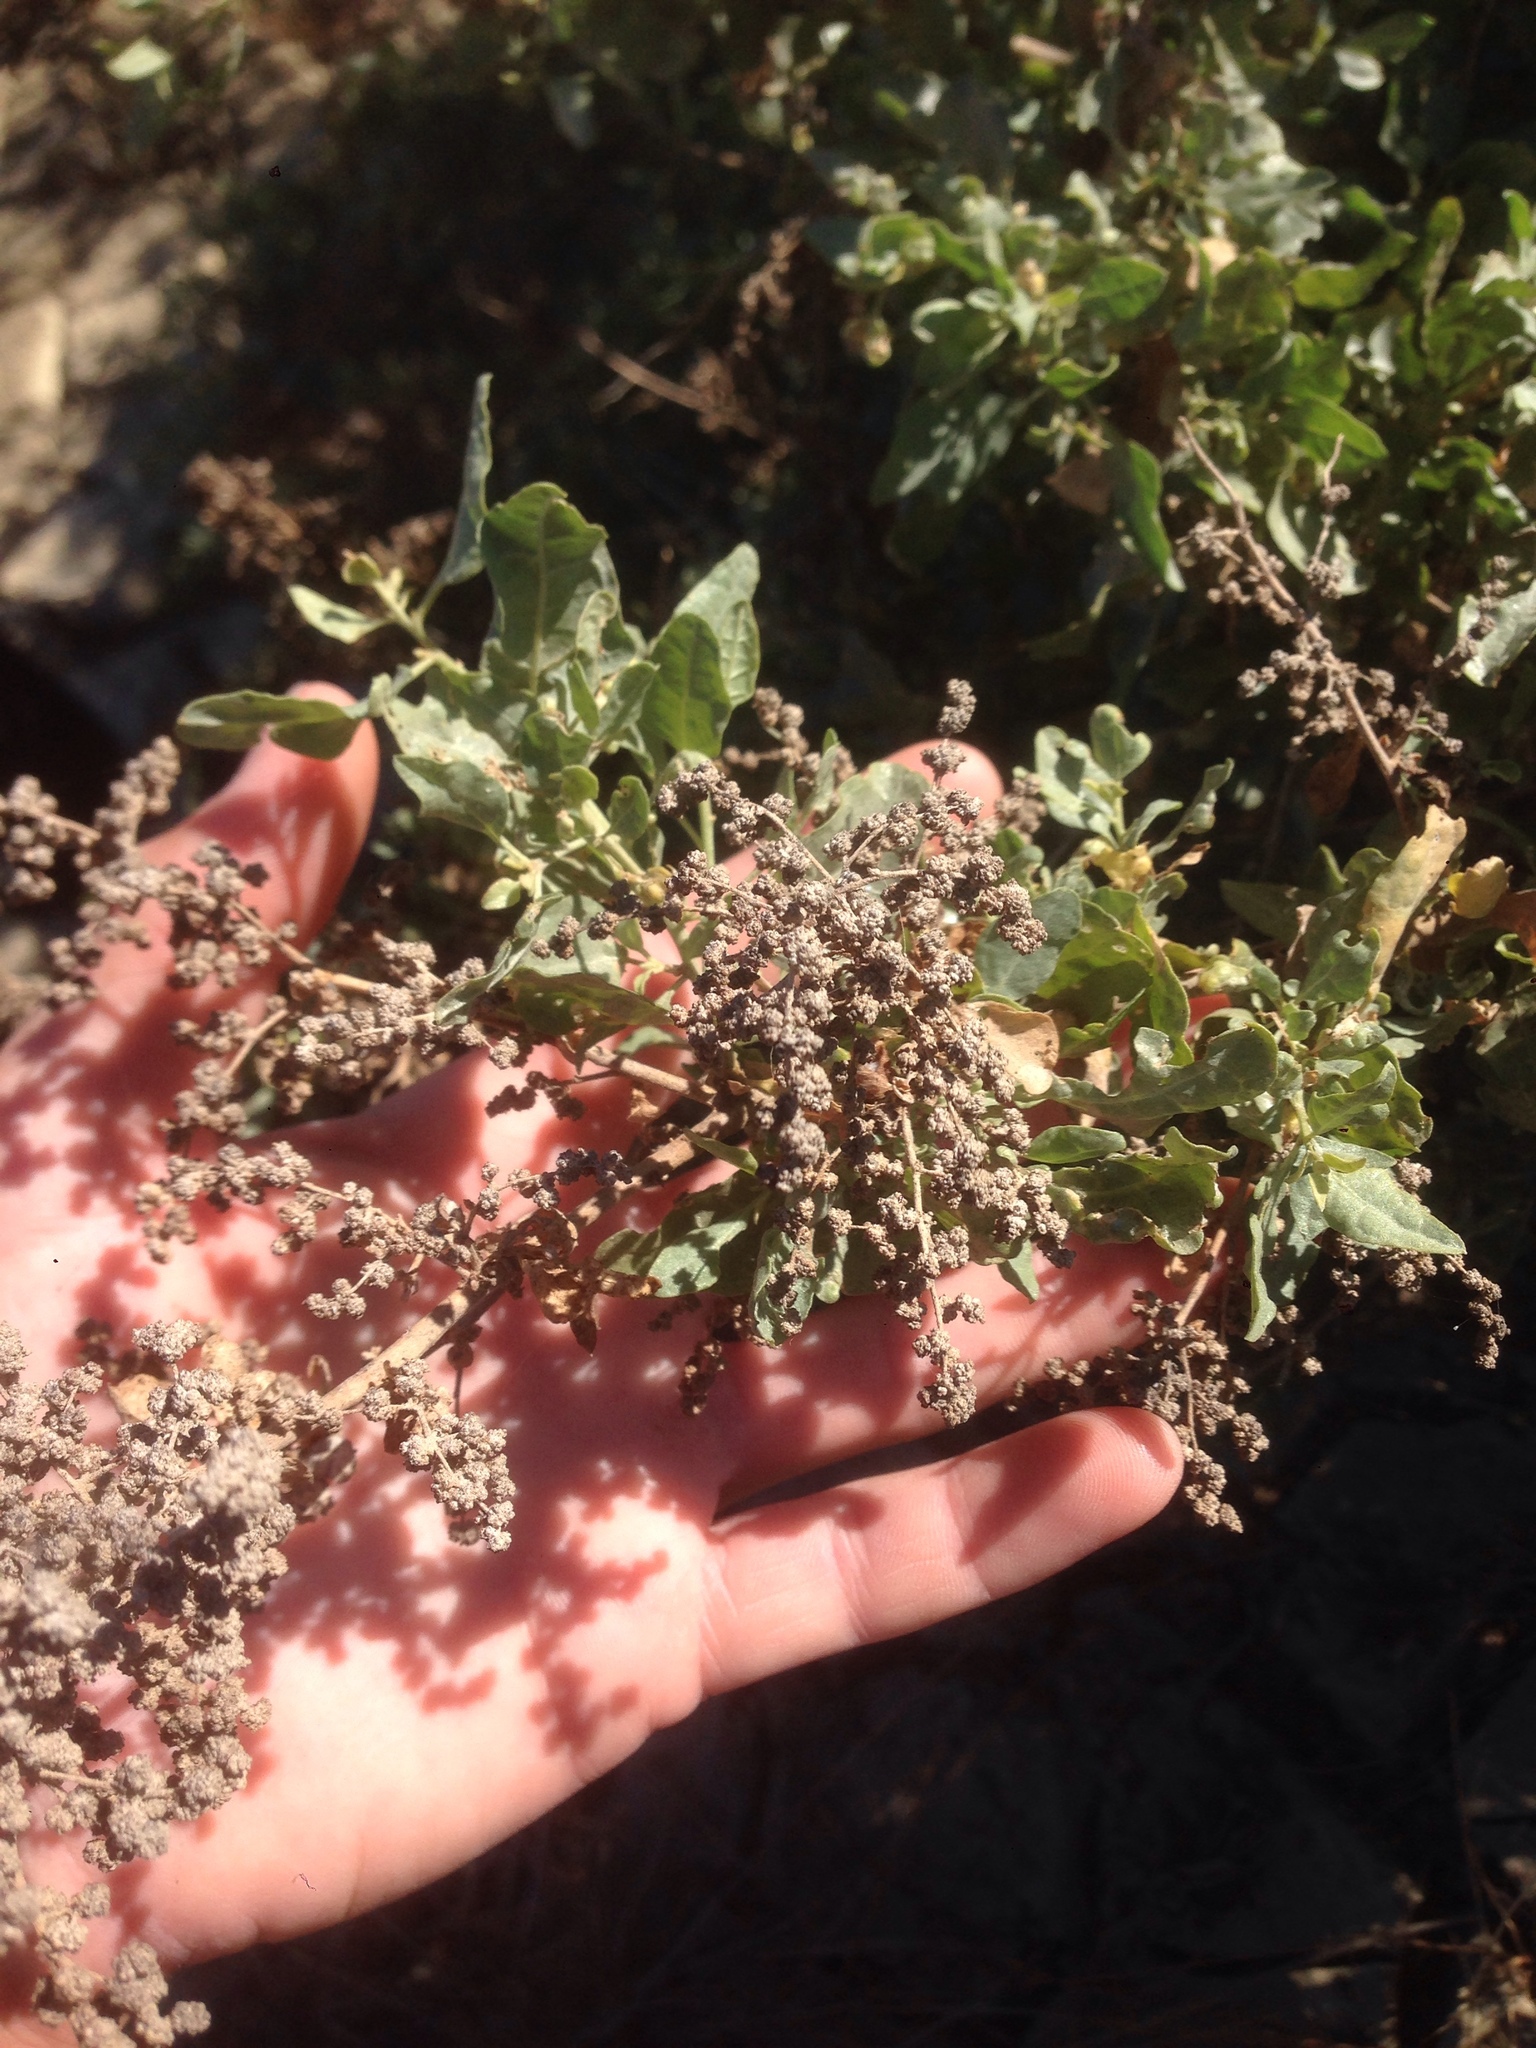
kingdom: Plantae
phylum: Tracheophyta
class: Magnoliopsida
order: Caryophyllales
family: Amaranthaceae
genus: Atriplex
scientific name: Atriplex lentiformis
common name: Big saltbush
